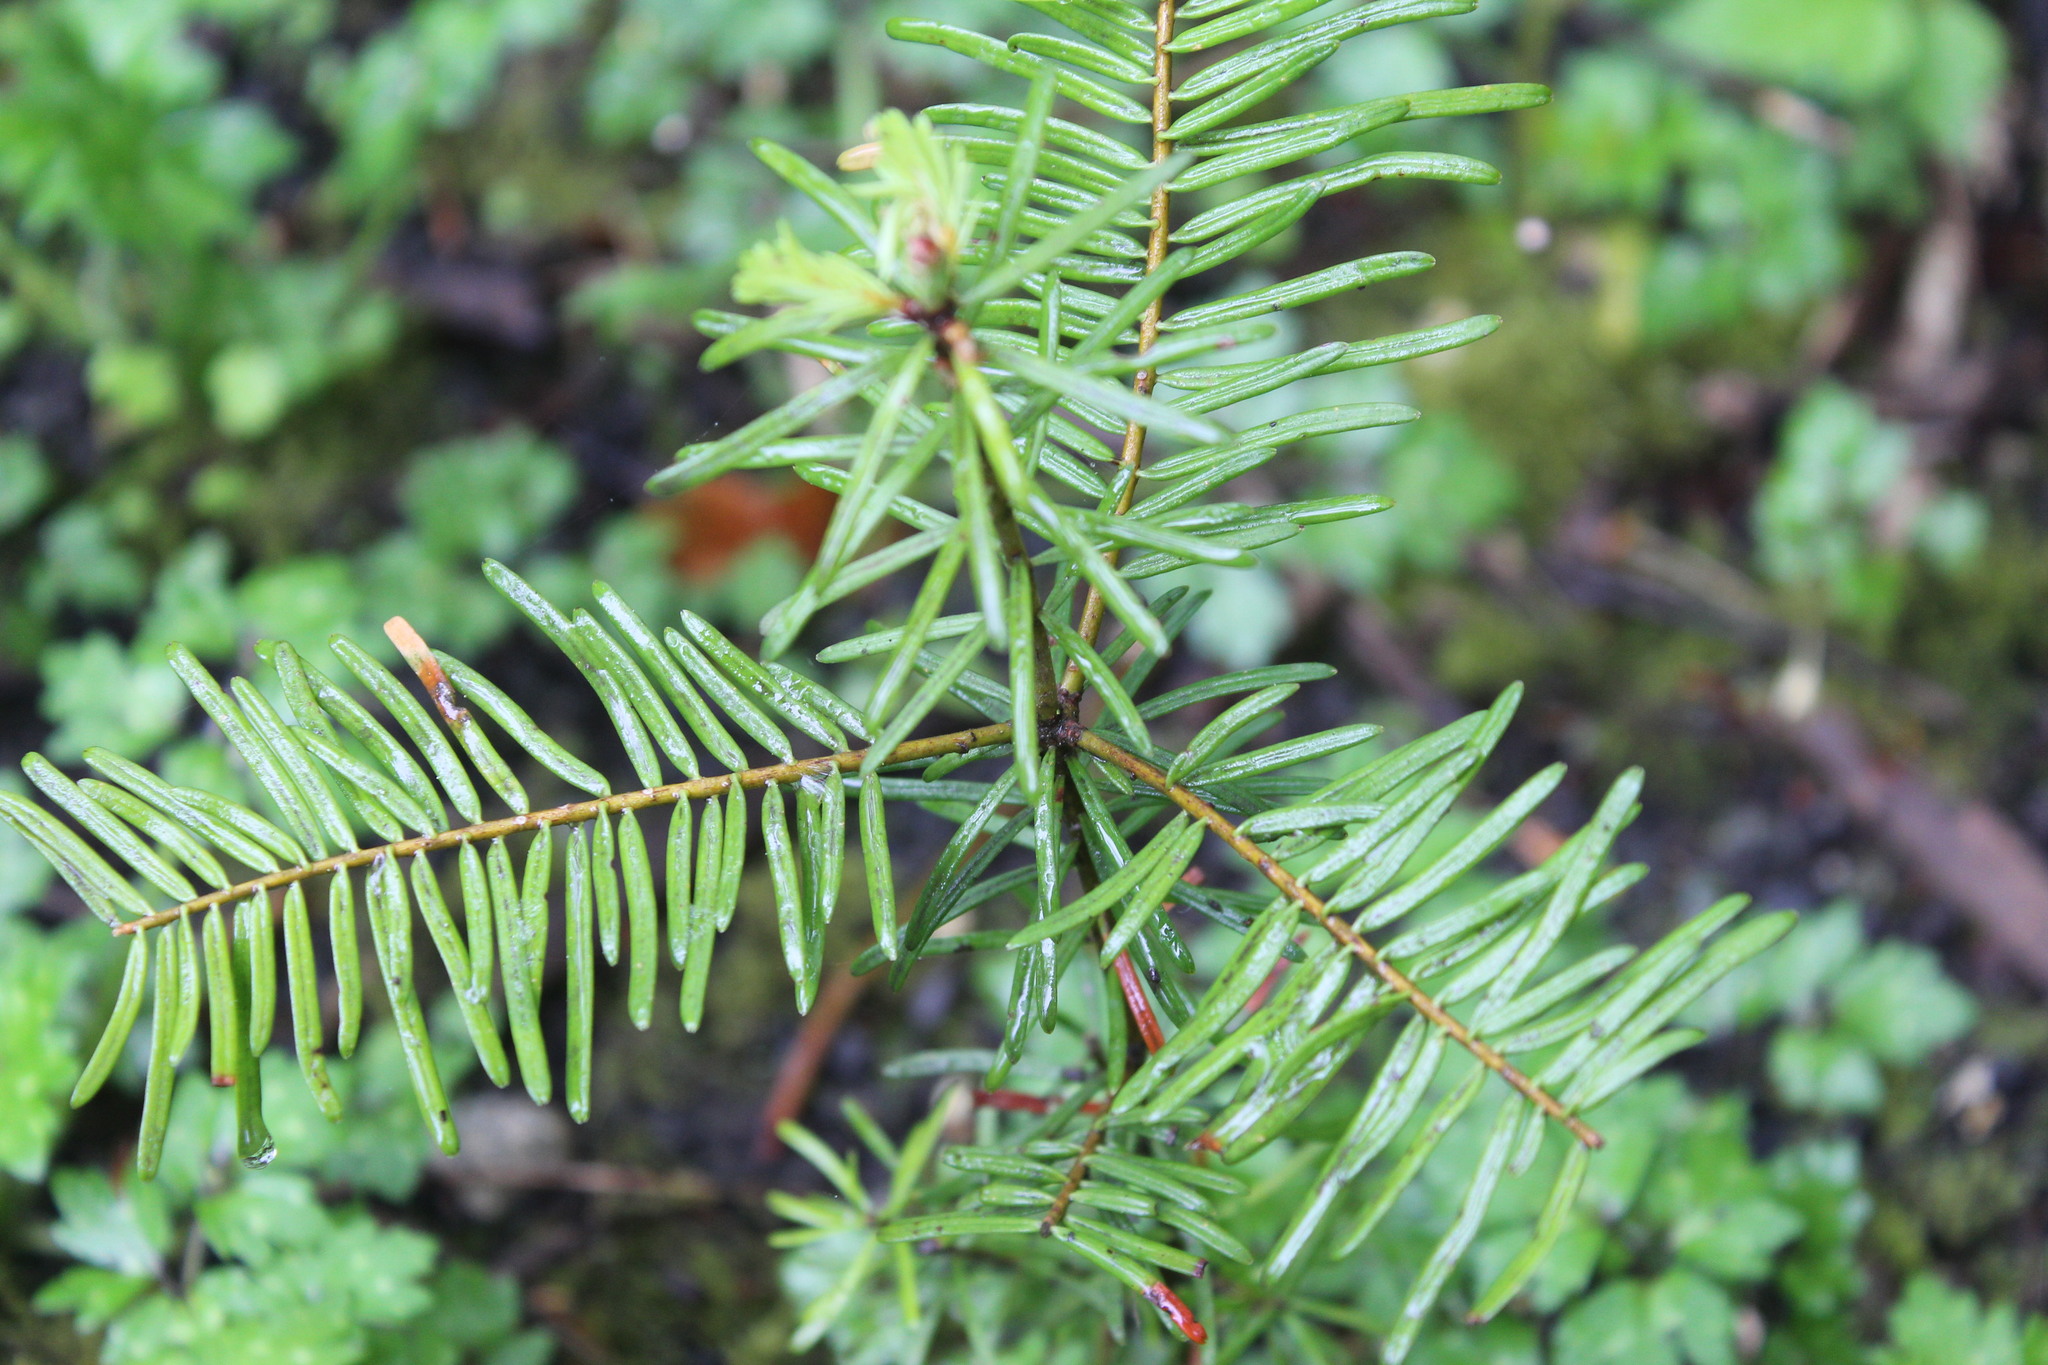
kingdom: Plantae
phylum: Tracheophyta
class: Pinopsida
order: Pinales
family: Taxaceae
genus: Taxus
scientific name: Taxus brevifolia
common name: Pacific yew
